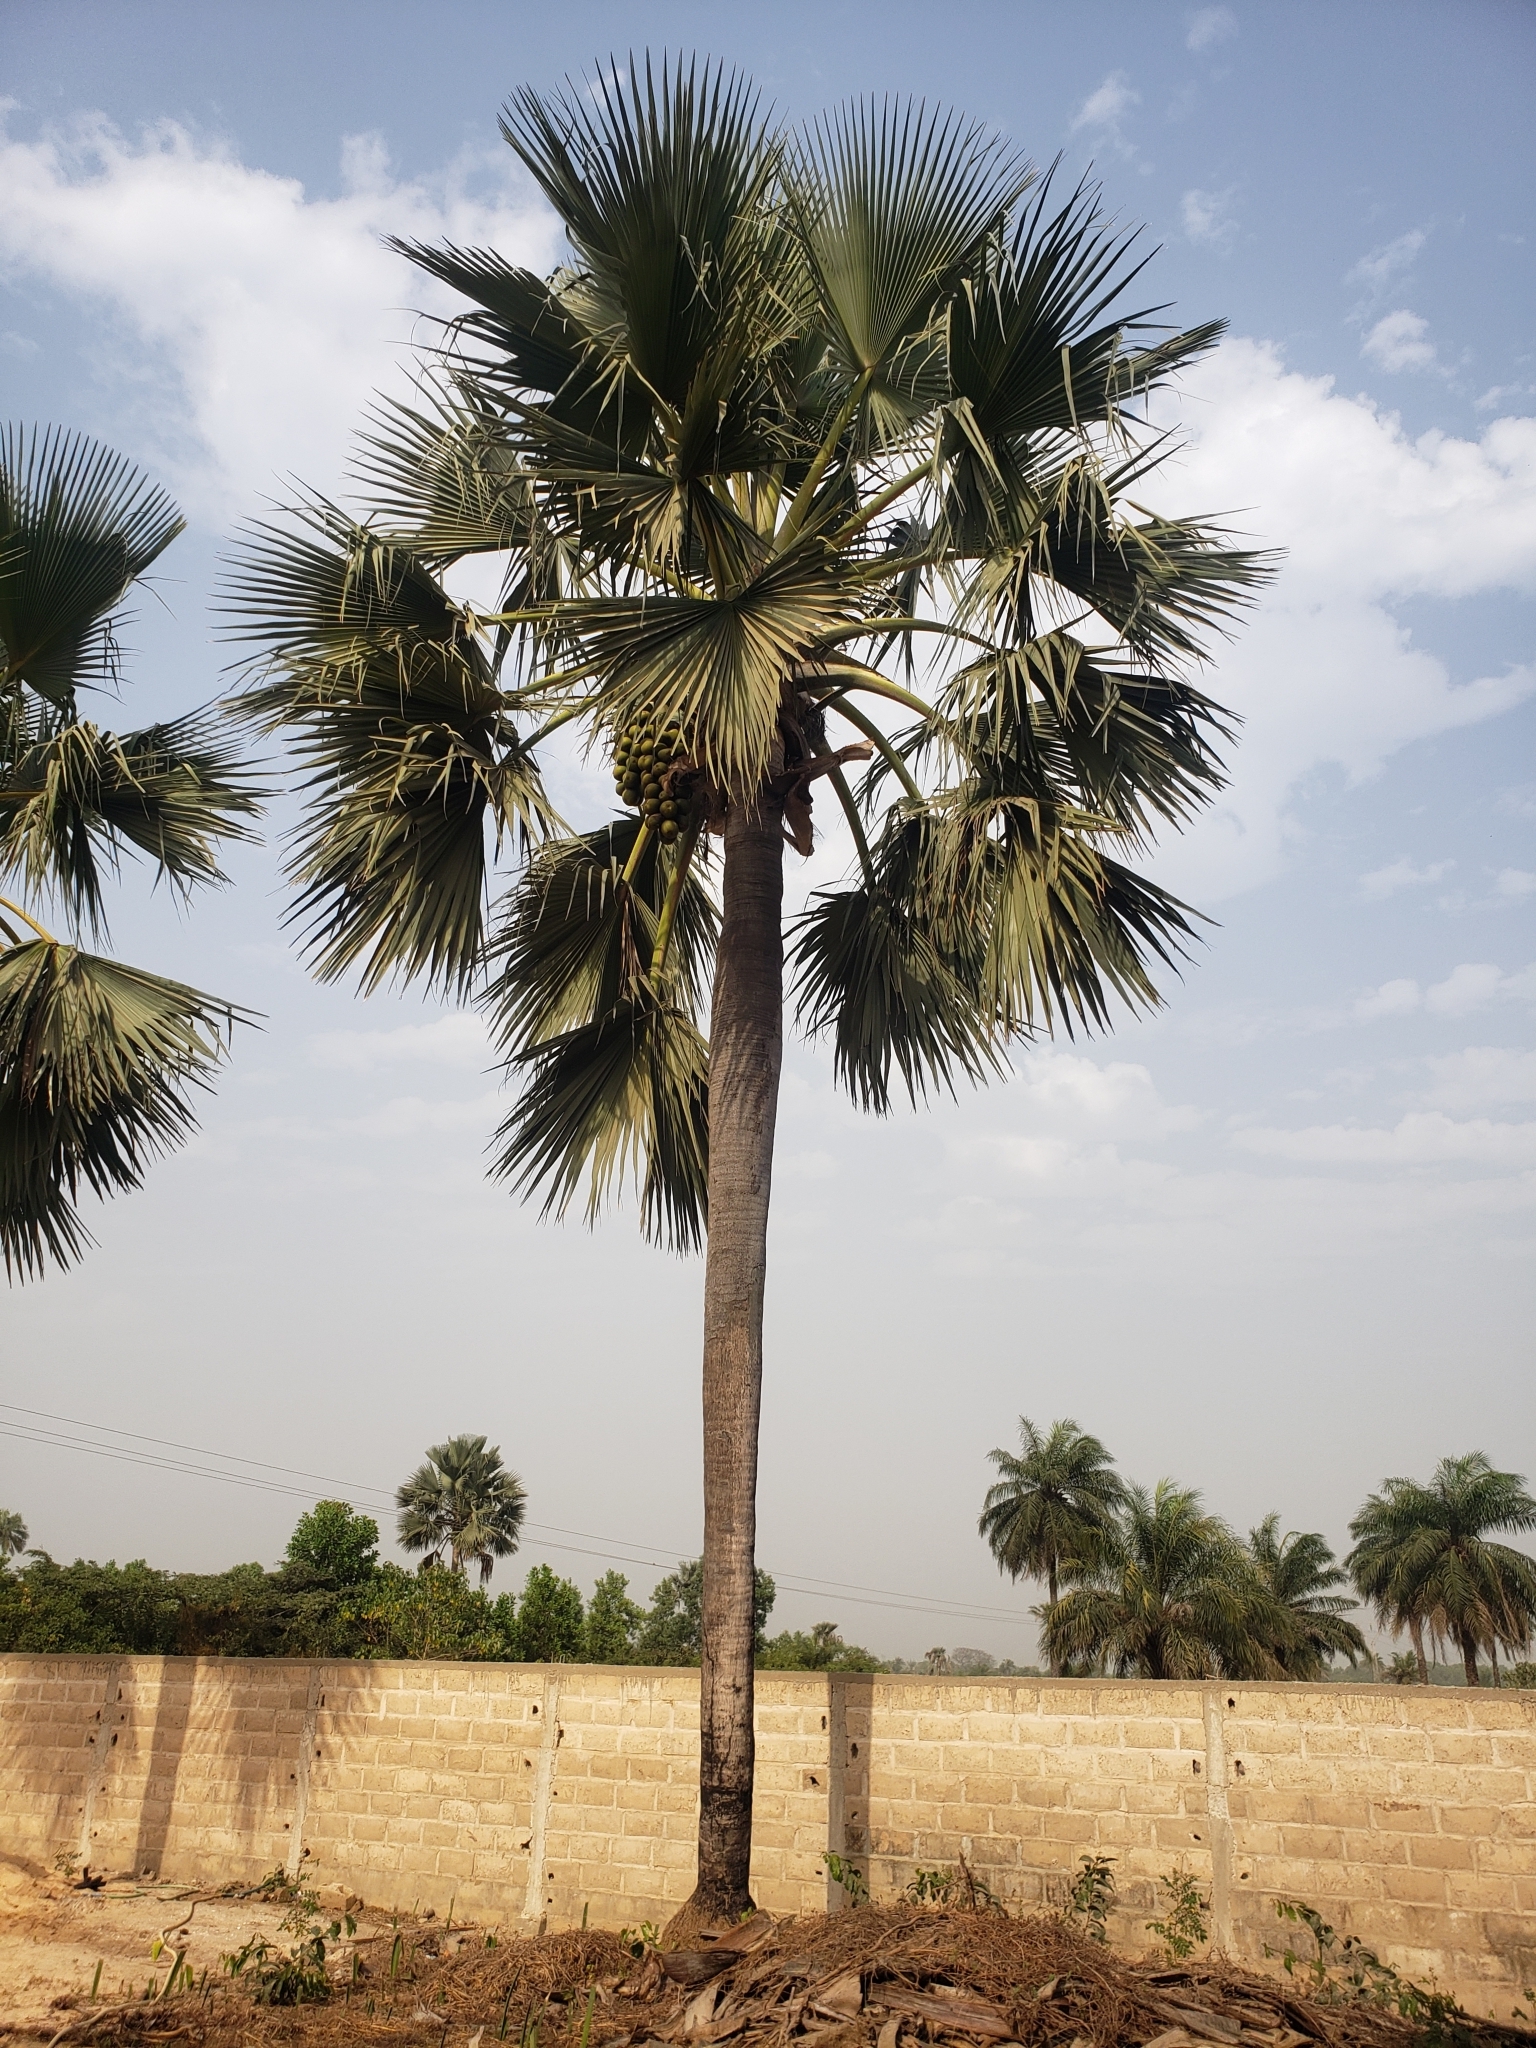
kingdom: Plantae
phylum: Tracheophyta
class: Liliopsida
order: Arecales
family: Arecaceae
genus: Borassus
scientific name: Borassus akeassii
